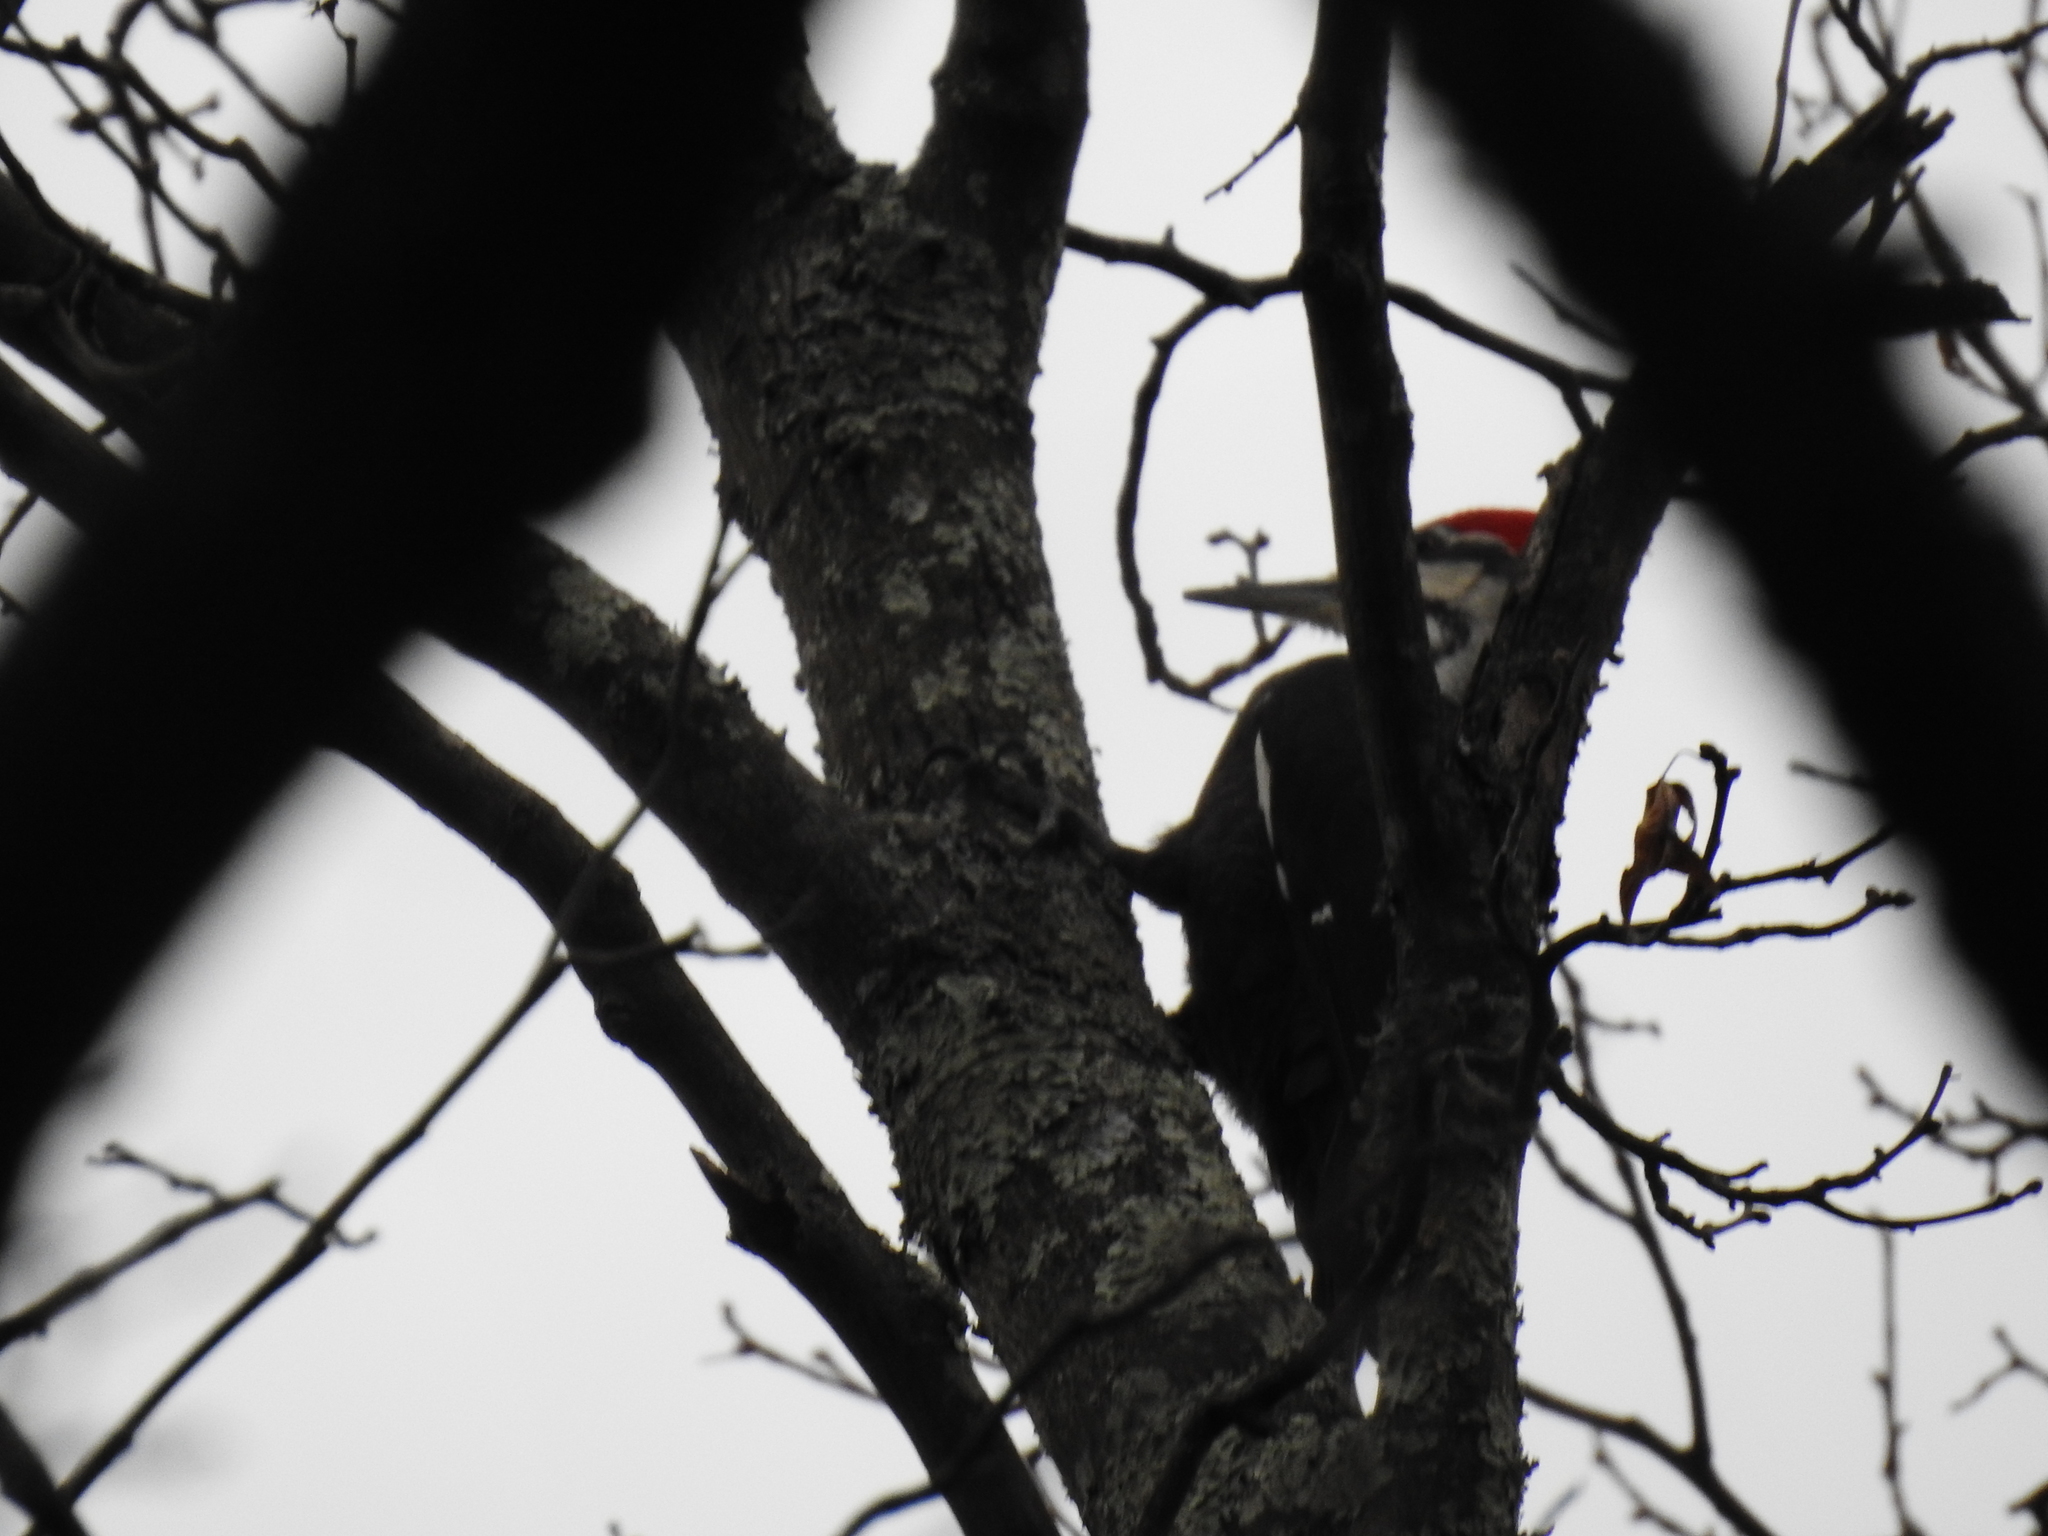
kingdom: Animalia
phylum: Chordata
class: Aves
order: Piciformes
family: Picidae
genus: Dryocopus
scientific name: Dryocopus pileatus
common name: Pileated woodpecker
